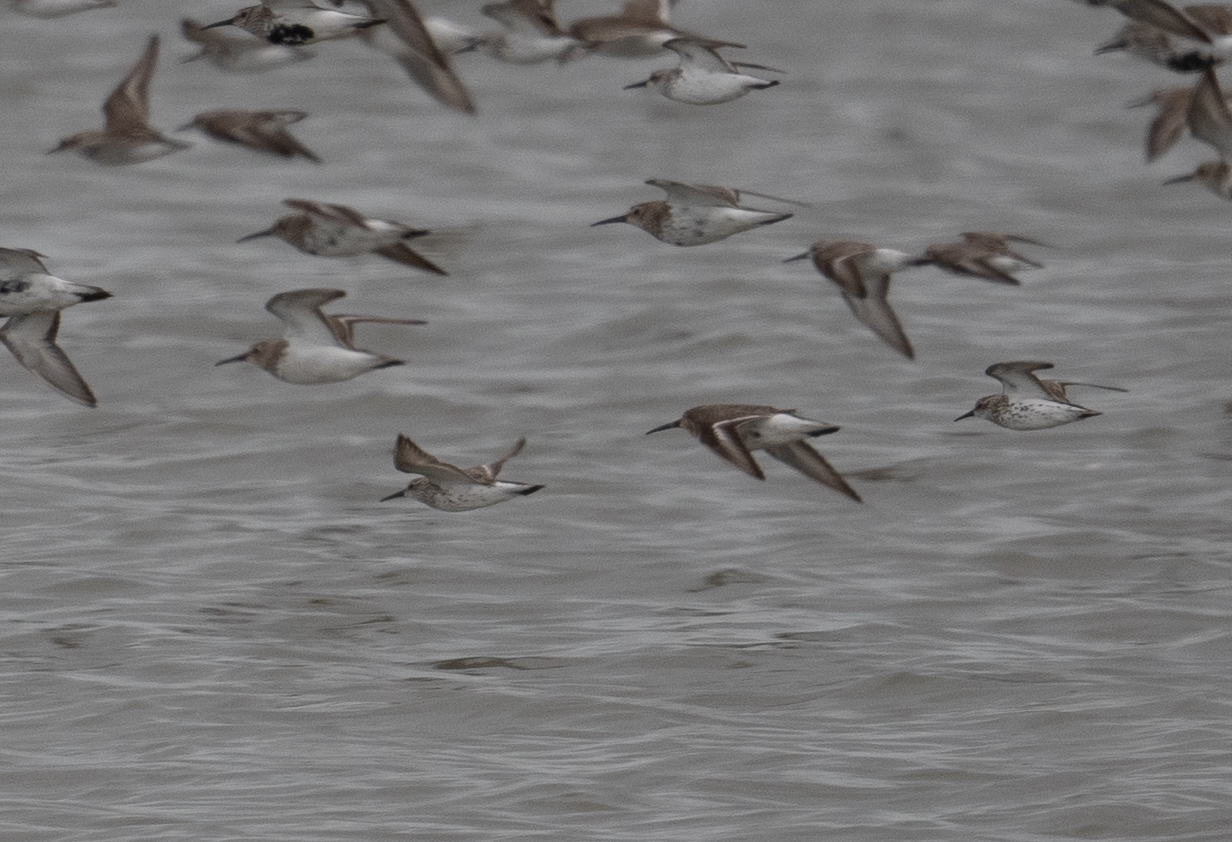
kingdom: Animalia
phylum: Chordata
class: Aves
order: Charadriiformes
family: Scolopacidae
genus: Calidris
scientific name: Calidris alpina
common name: Dunlin
